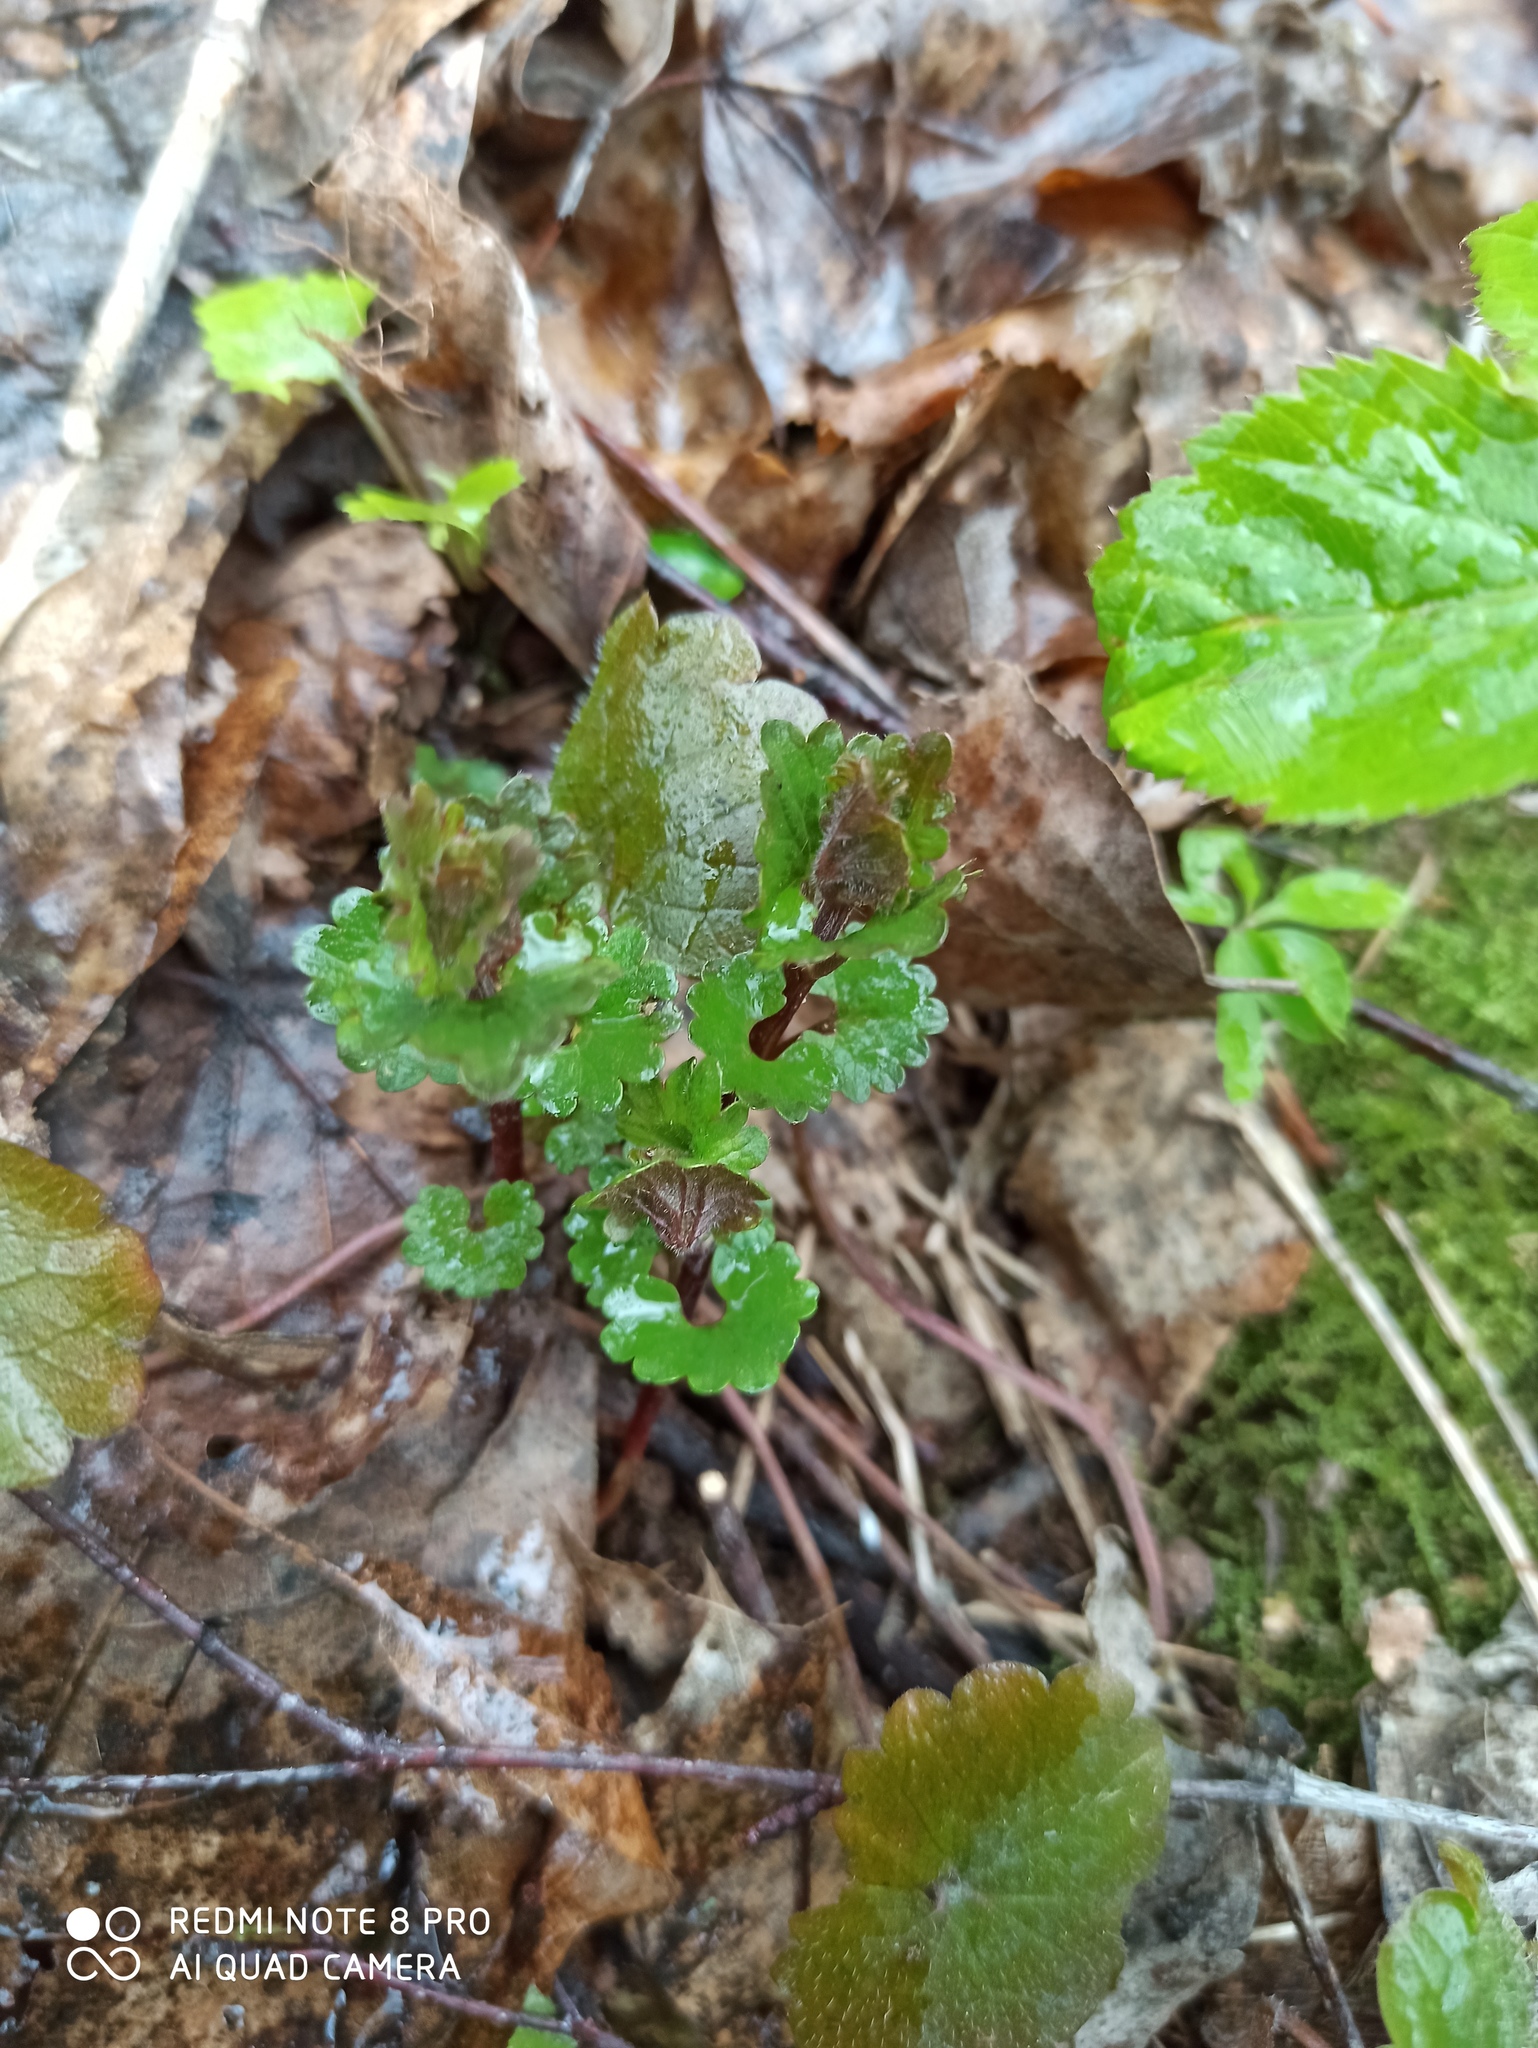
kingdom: Plantae
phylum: Tracheophyta
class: Magnoliopsida
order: Lamiales
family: Lamiaceae
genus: Glechoma
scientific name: Glechoma hederacea
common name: Ground ivy
